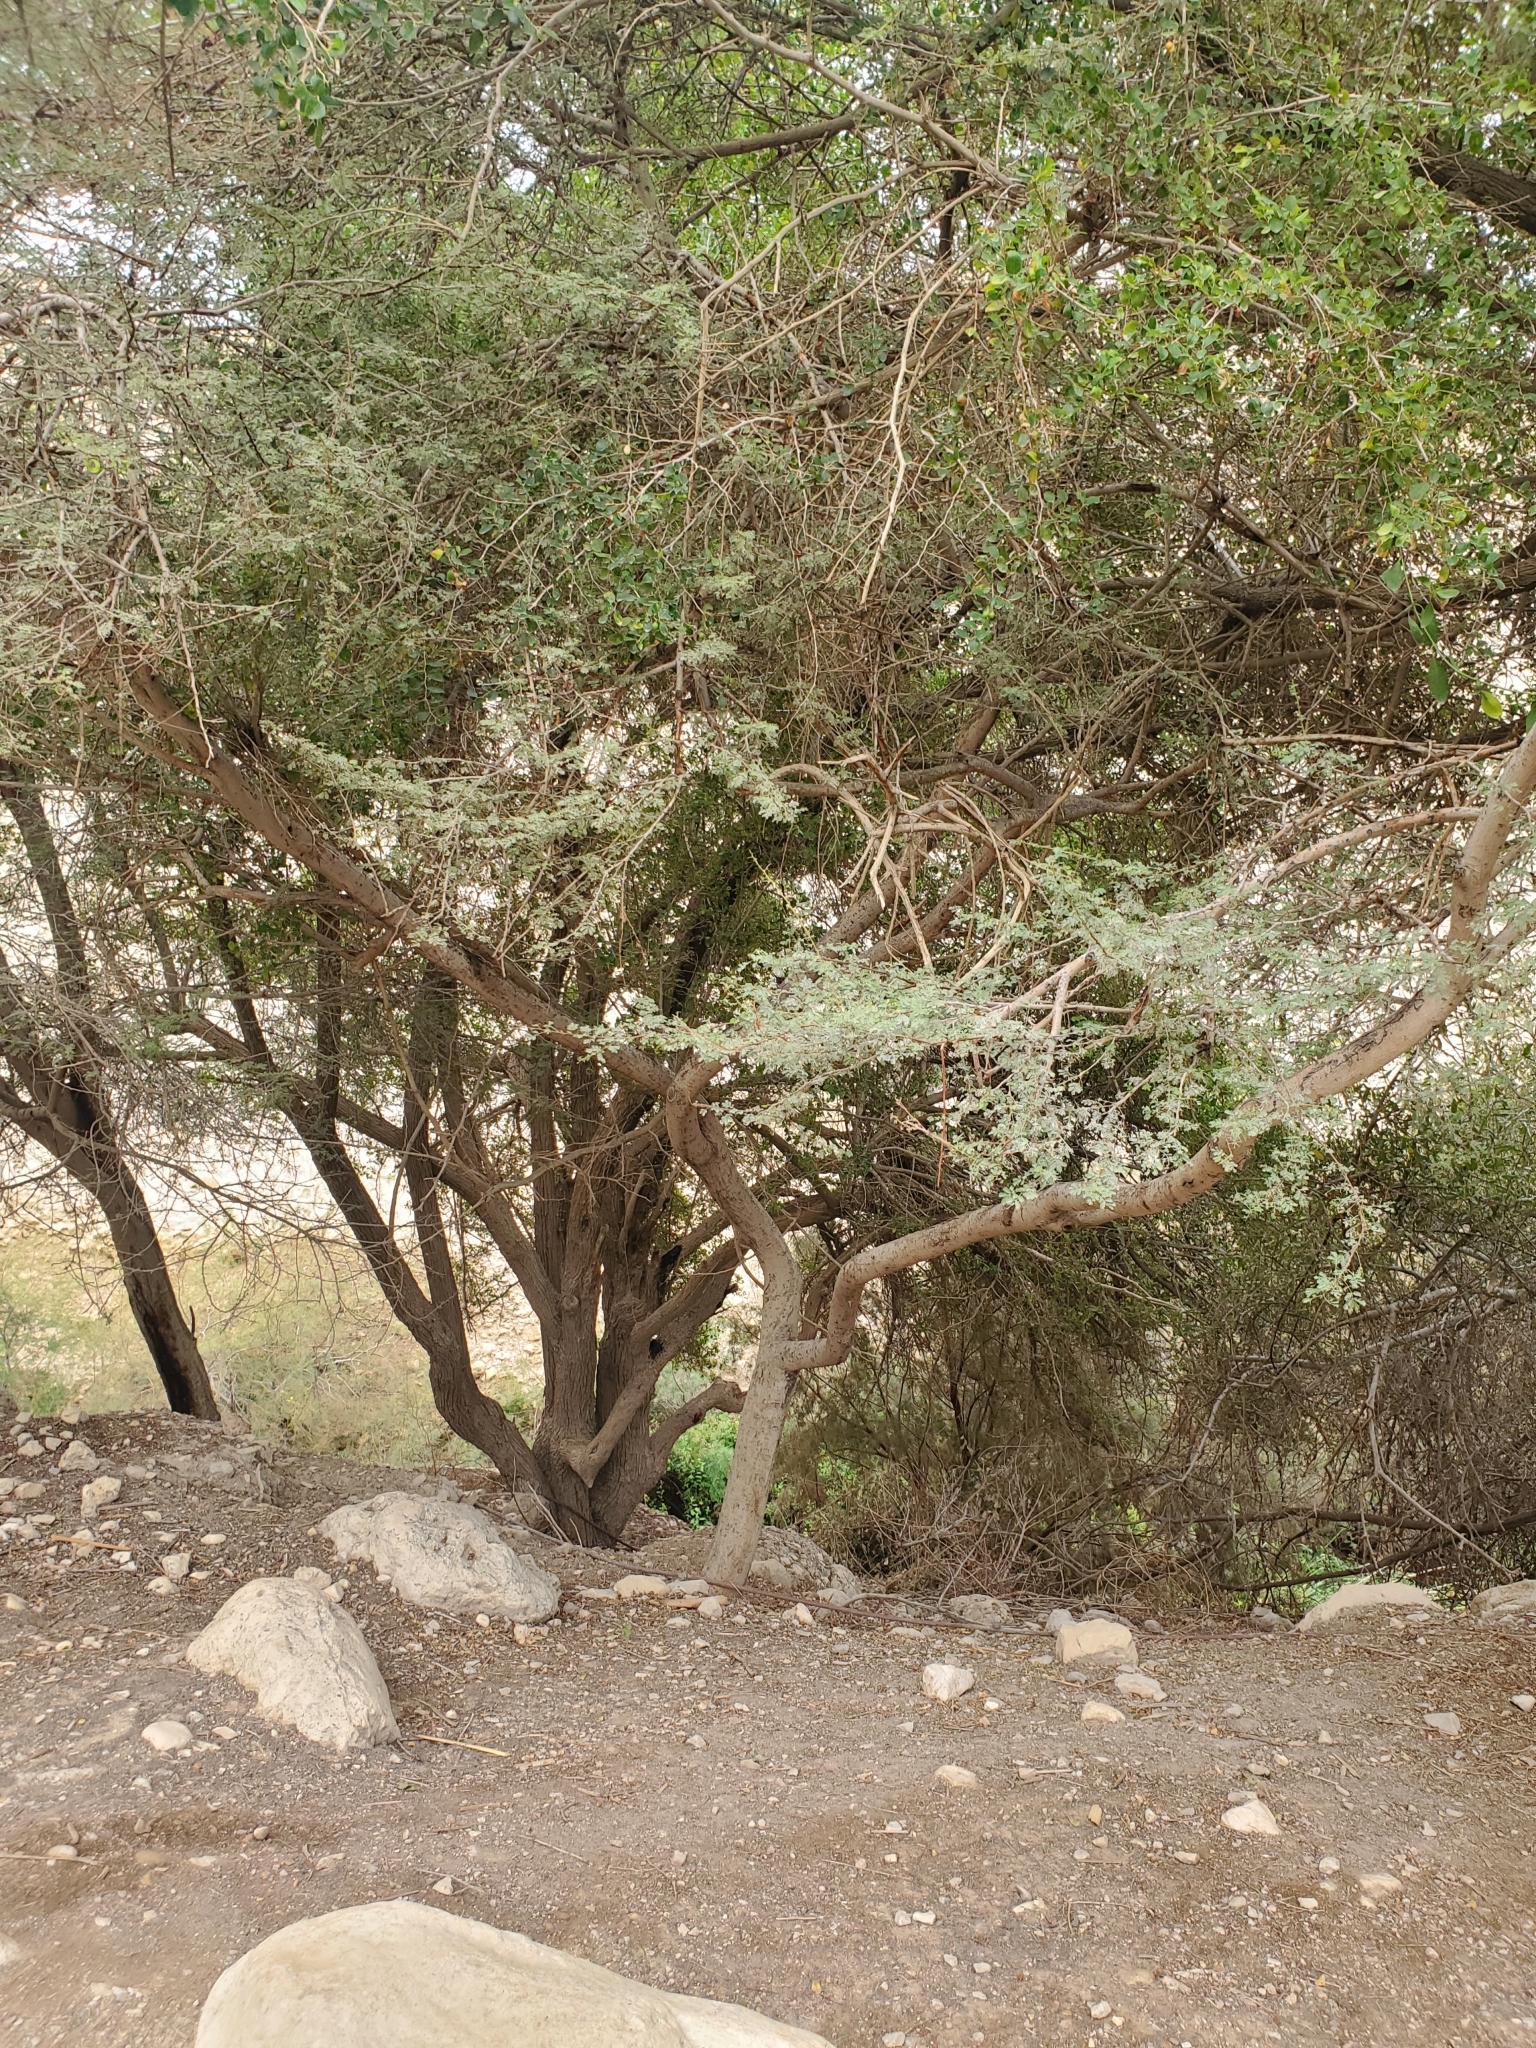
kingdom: Plantae
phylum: Tracheophyta
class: Magnoliopsida
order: Fabales
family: Fabaceae
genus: Vachellia
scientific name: Vachellia tortilis
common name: Umbrella thorn acacia
